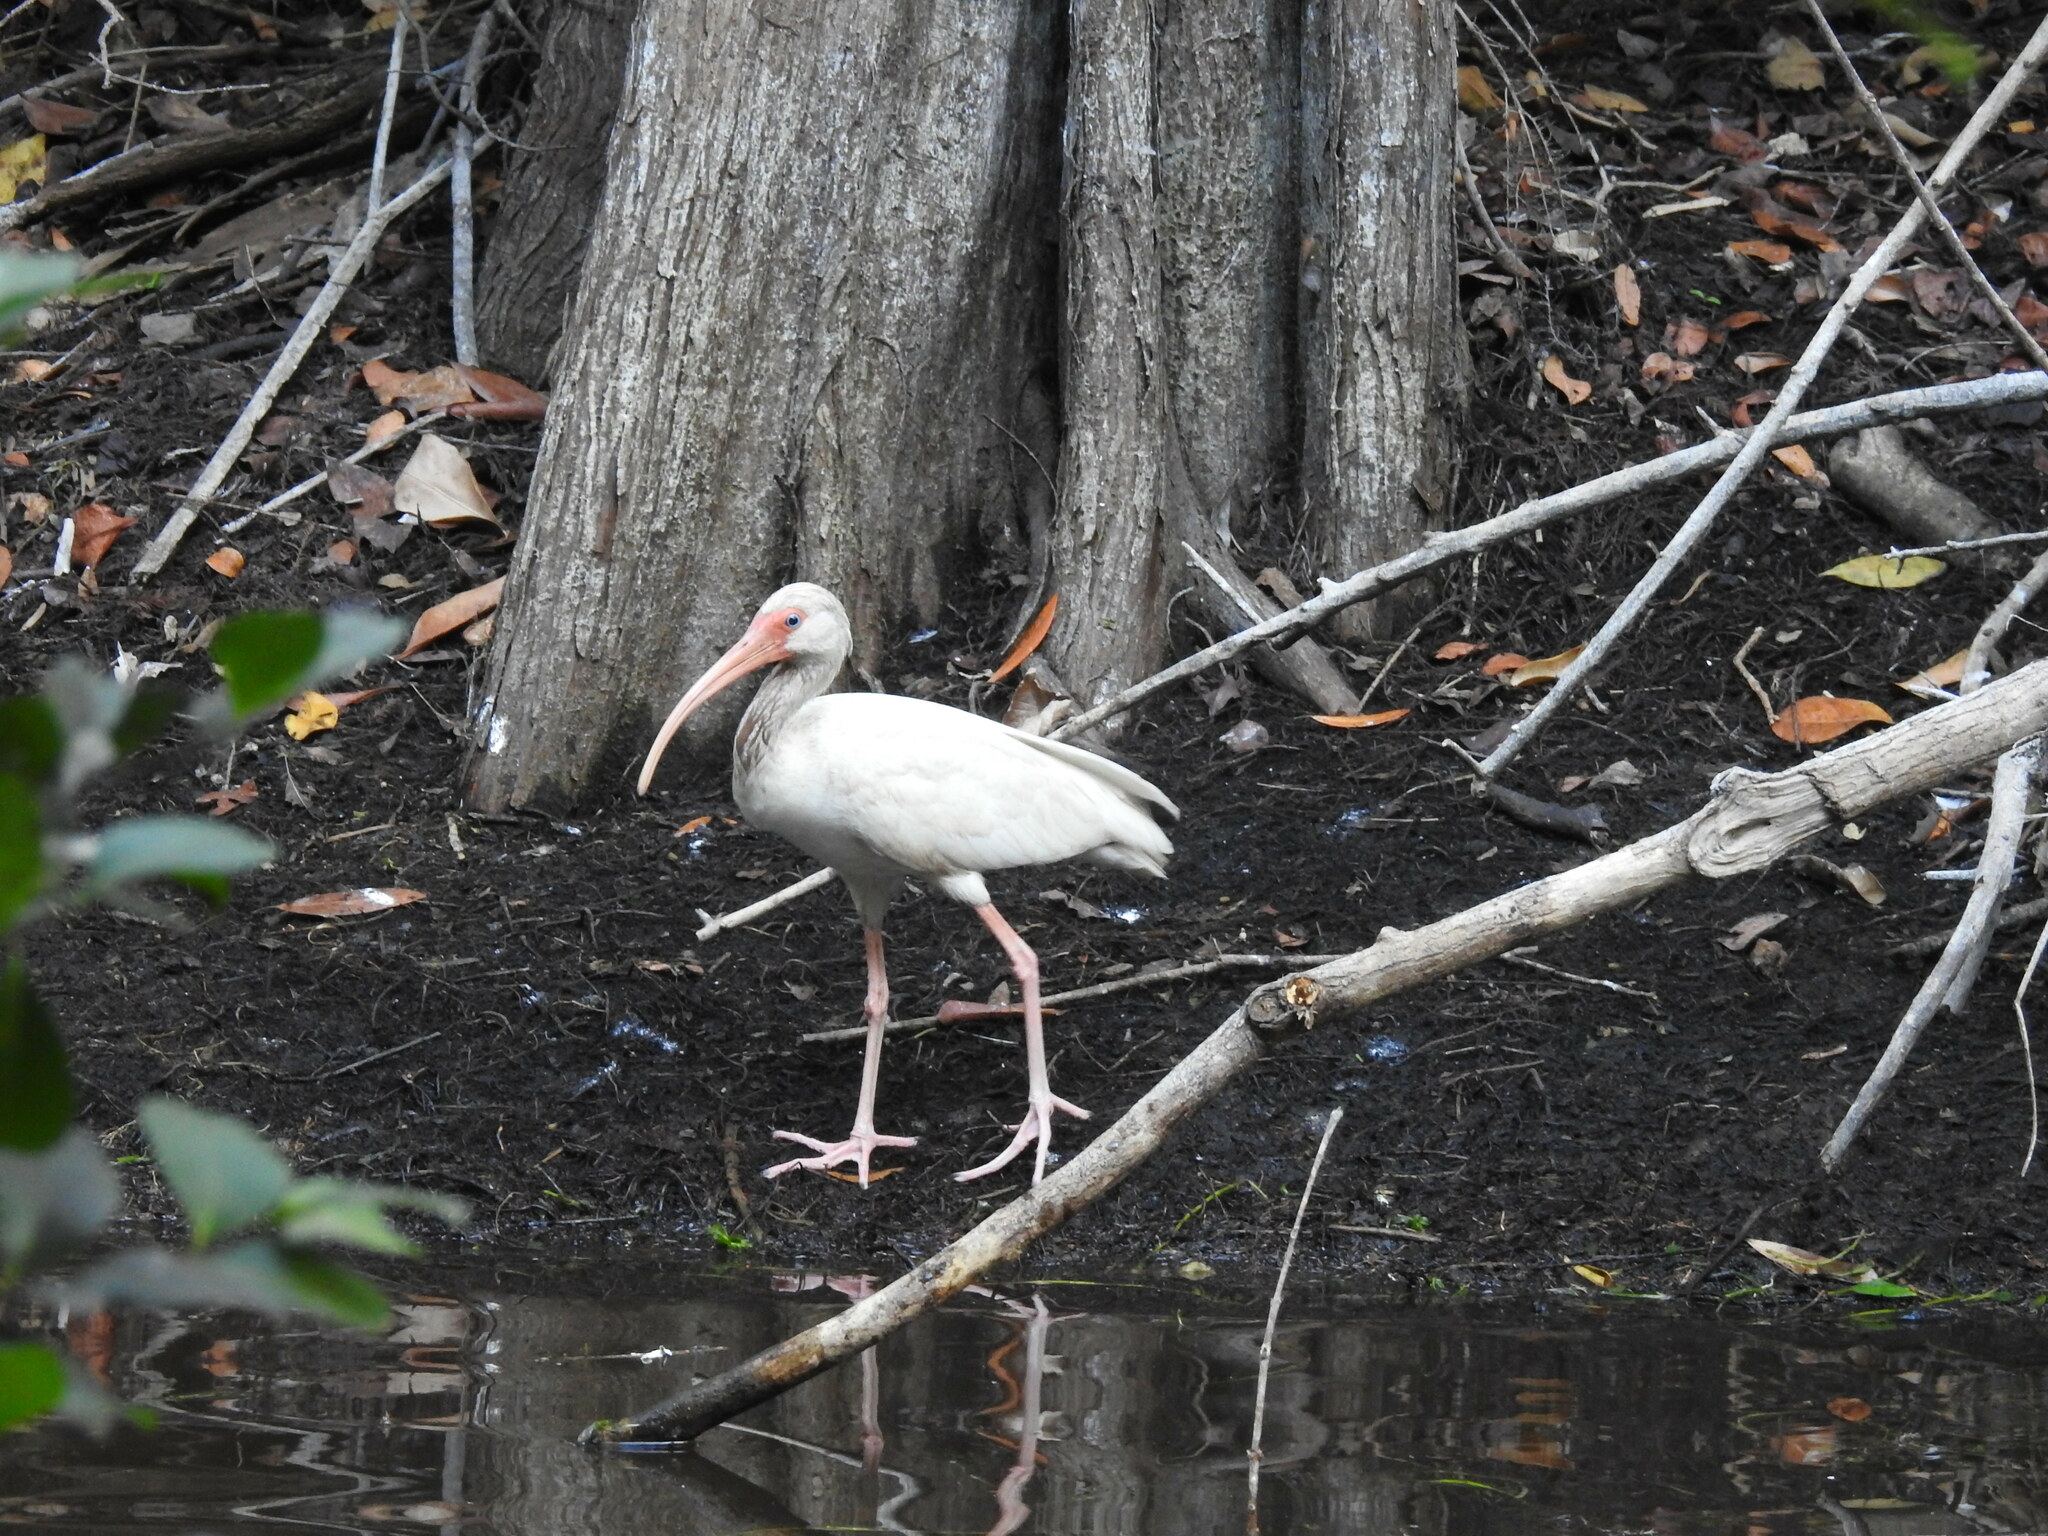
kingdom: Animalia
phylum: Chordata
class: Aves
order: Pelecaniformes
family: Threskiornithidae
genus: Eudocimus
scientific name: Eudocimus albus
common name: White ibis
